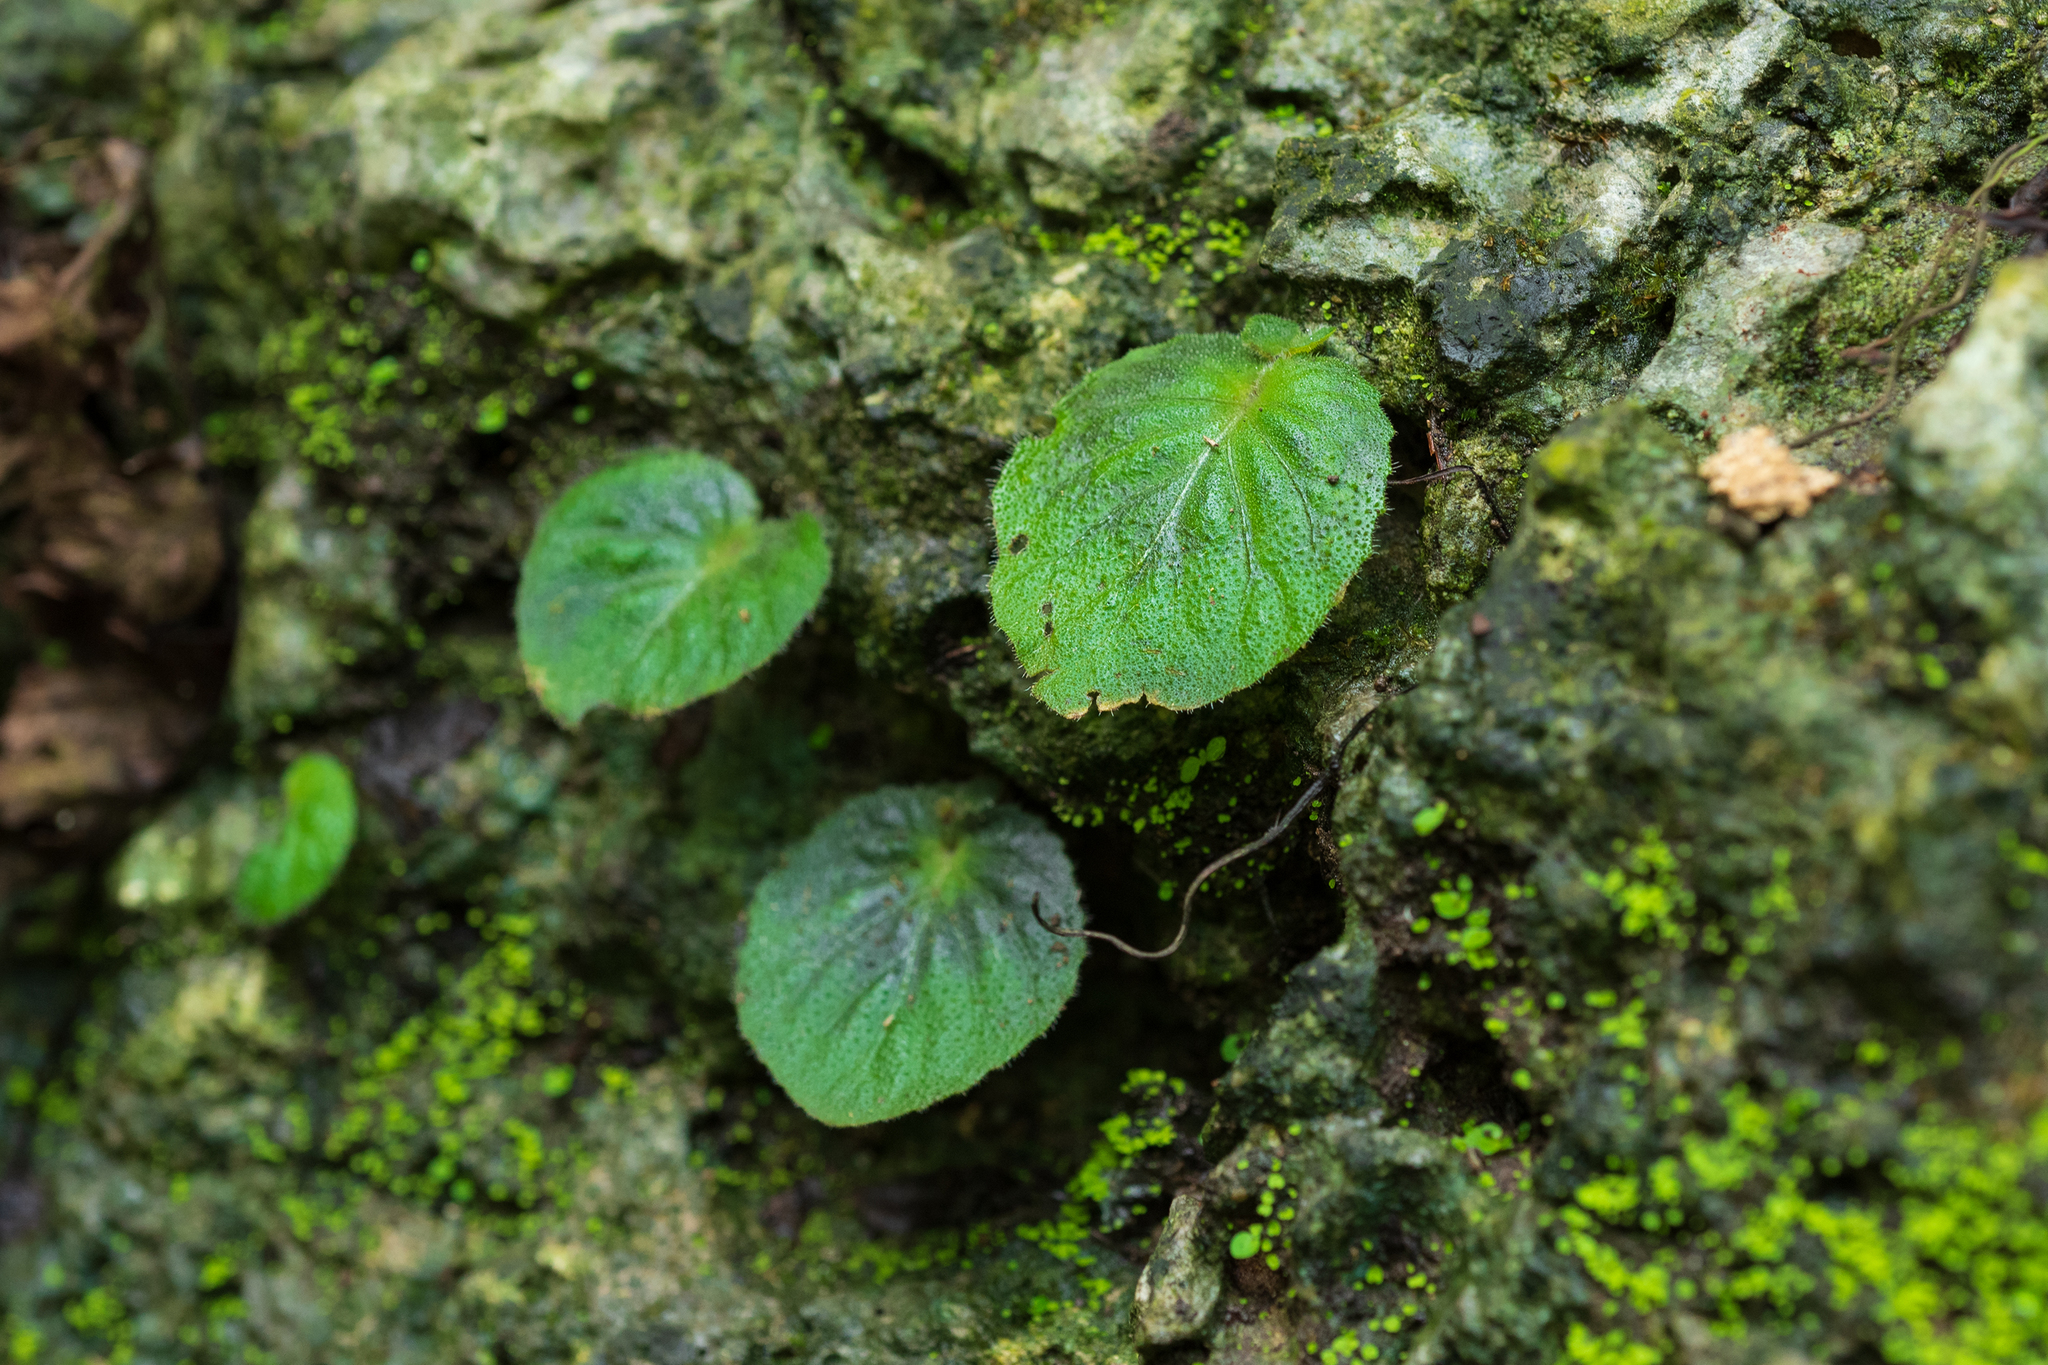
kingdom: Plantae
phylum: Tracheophyta
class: Magnoliopsida
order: Lamiales
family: Gesneriaceae
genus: Epithema
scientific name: Epithema ceylanicum
